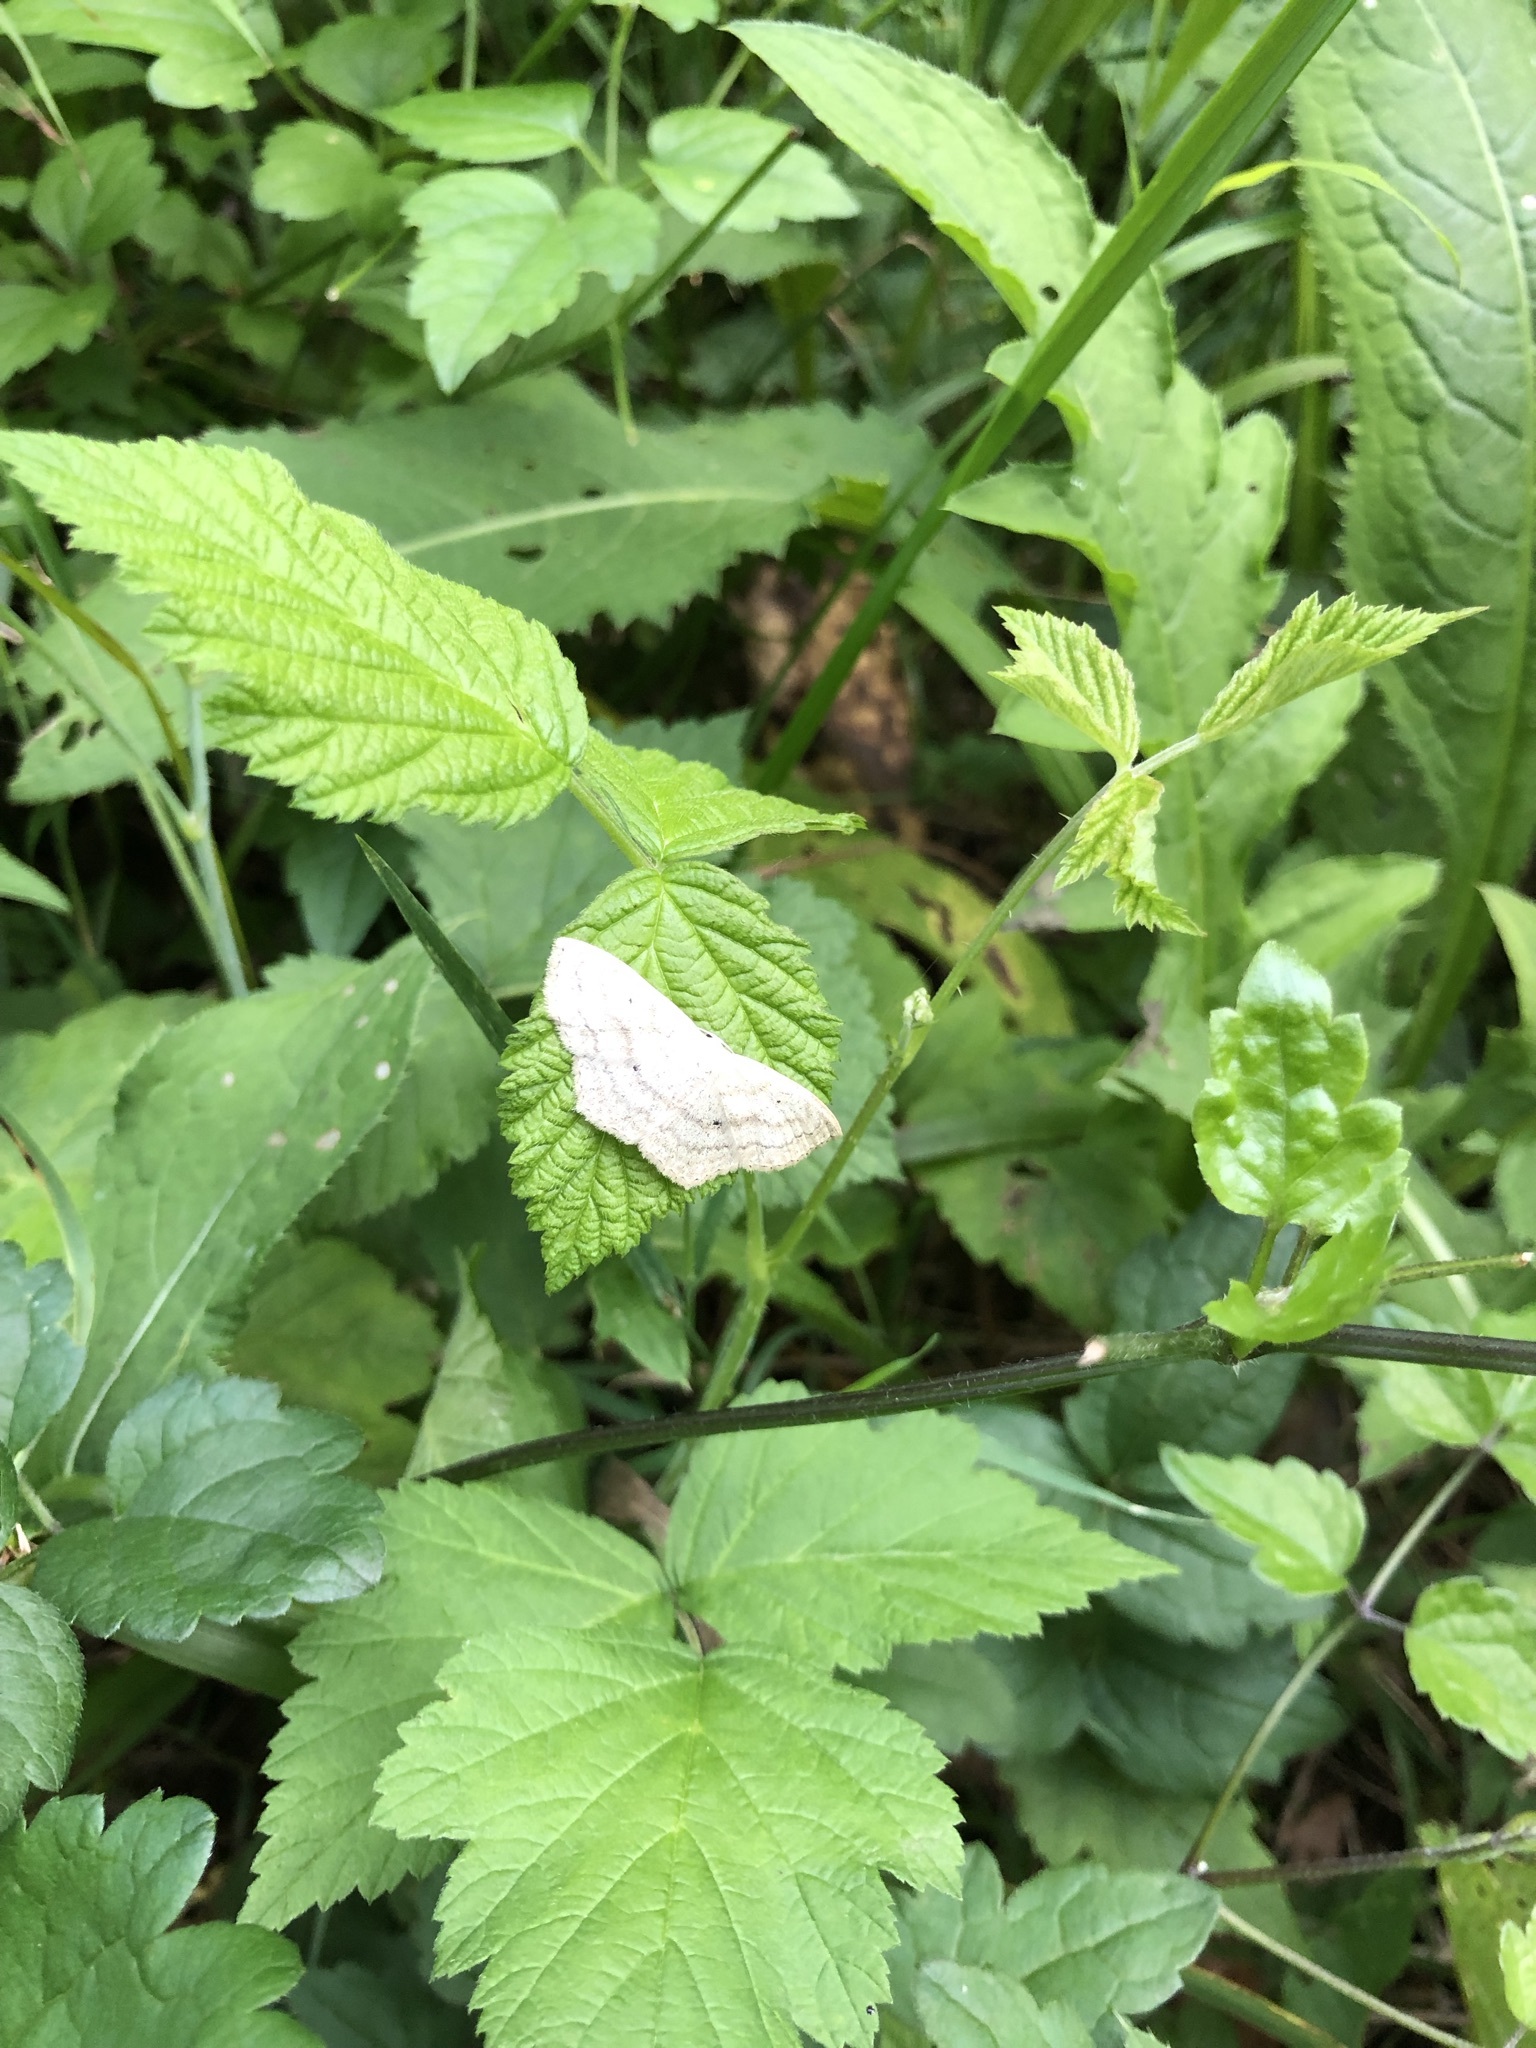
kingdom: Animalia
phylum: Arthropoda
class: Insecta
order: Lepidoptera
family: Geometridae
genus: Scopula
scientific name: Scopula nigropunctata
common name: Sub-angled wave
